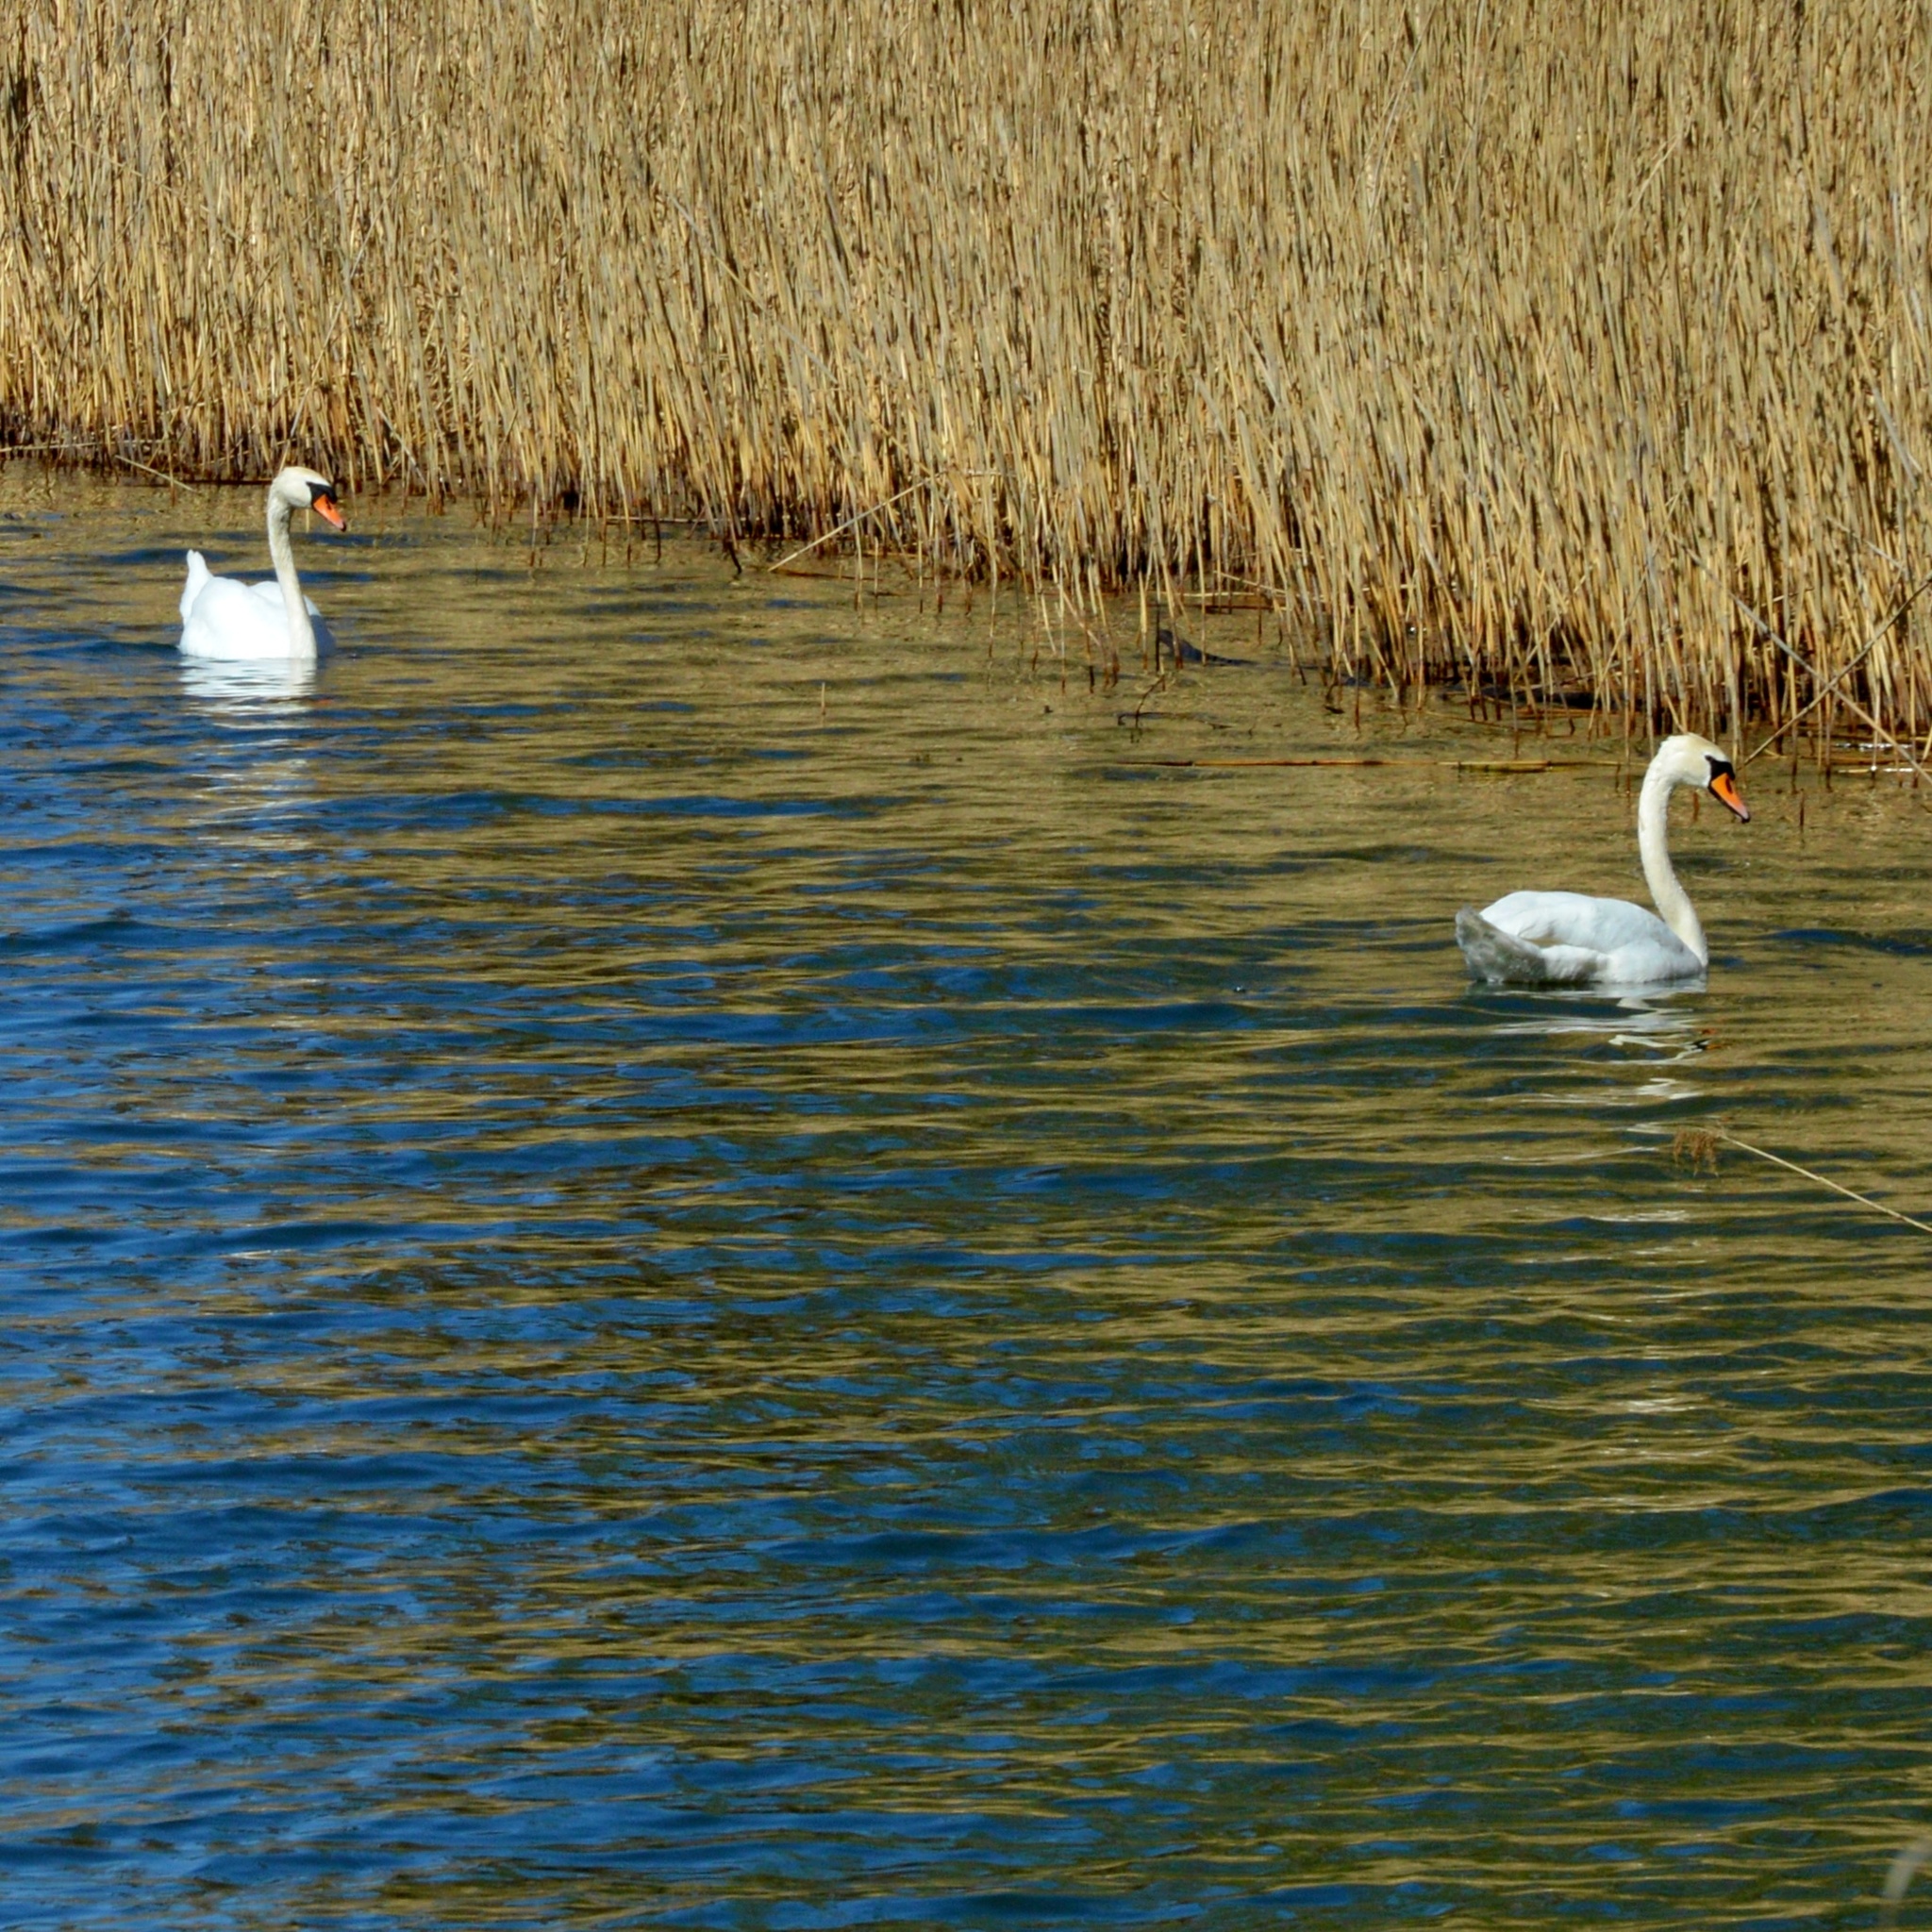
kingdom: Animalia
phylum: Chordata
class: Aves
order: Anseriformes
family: Anatidae
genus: Cygnus
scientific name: Cygnus olor
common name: Mute swan
